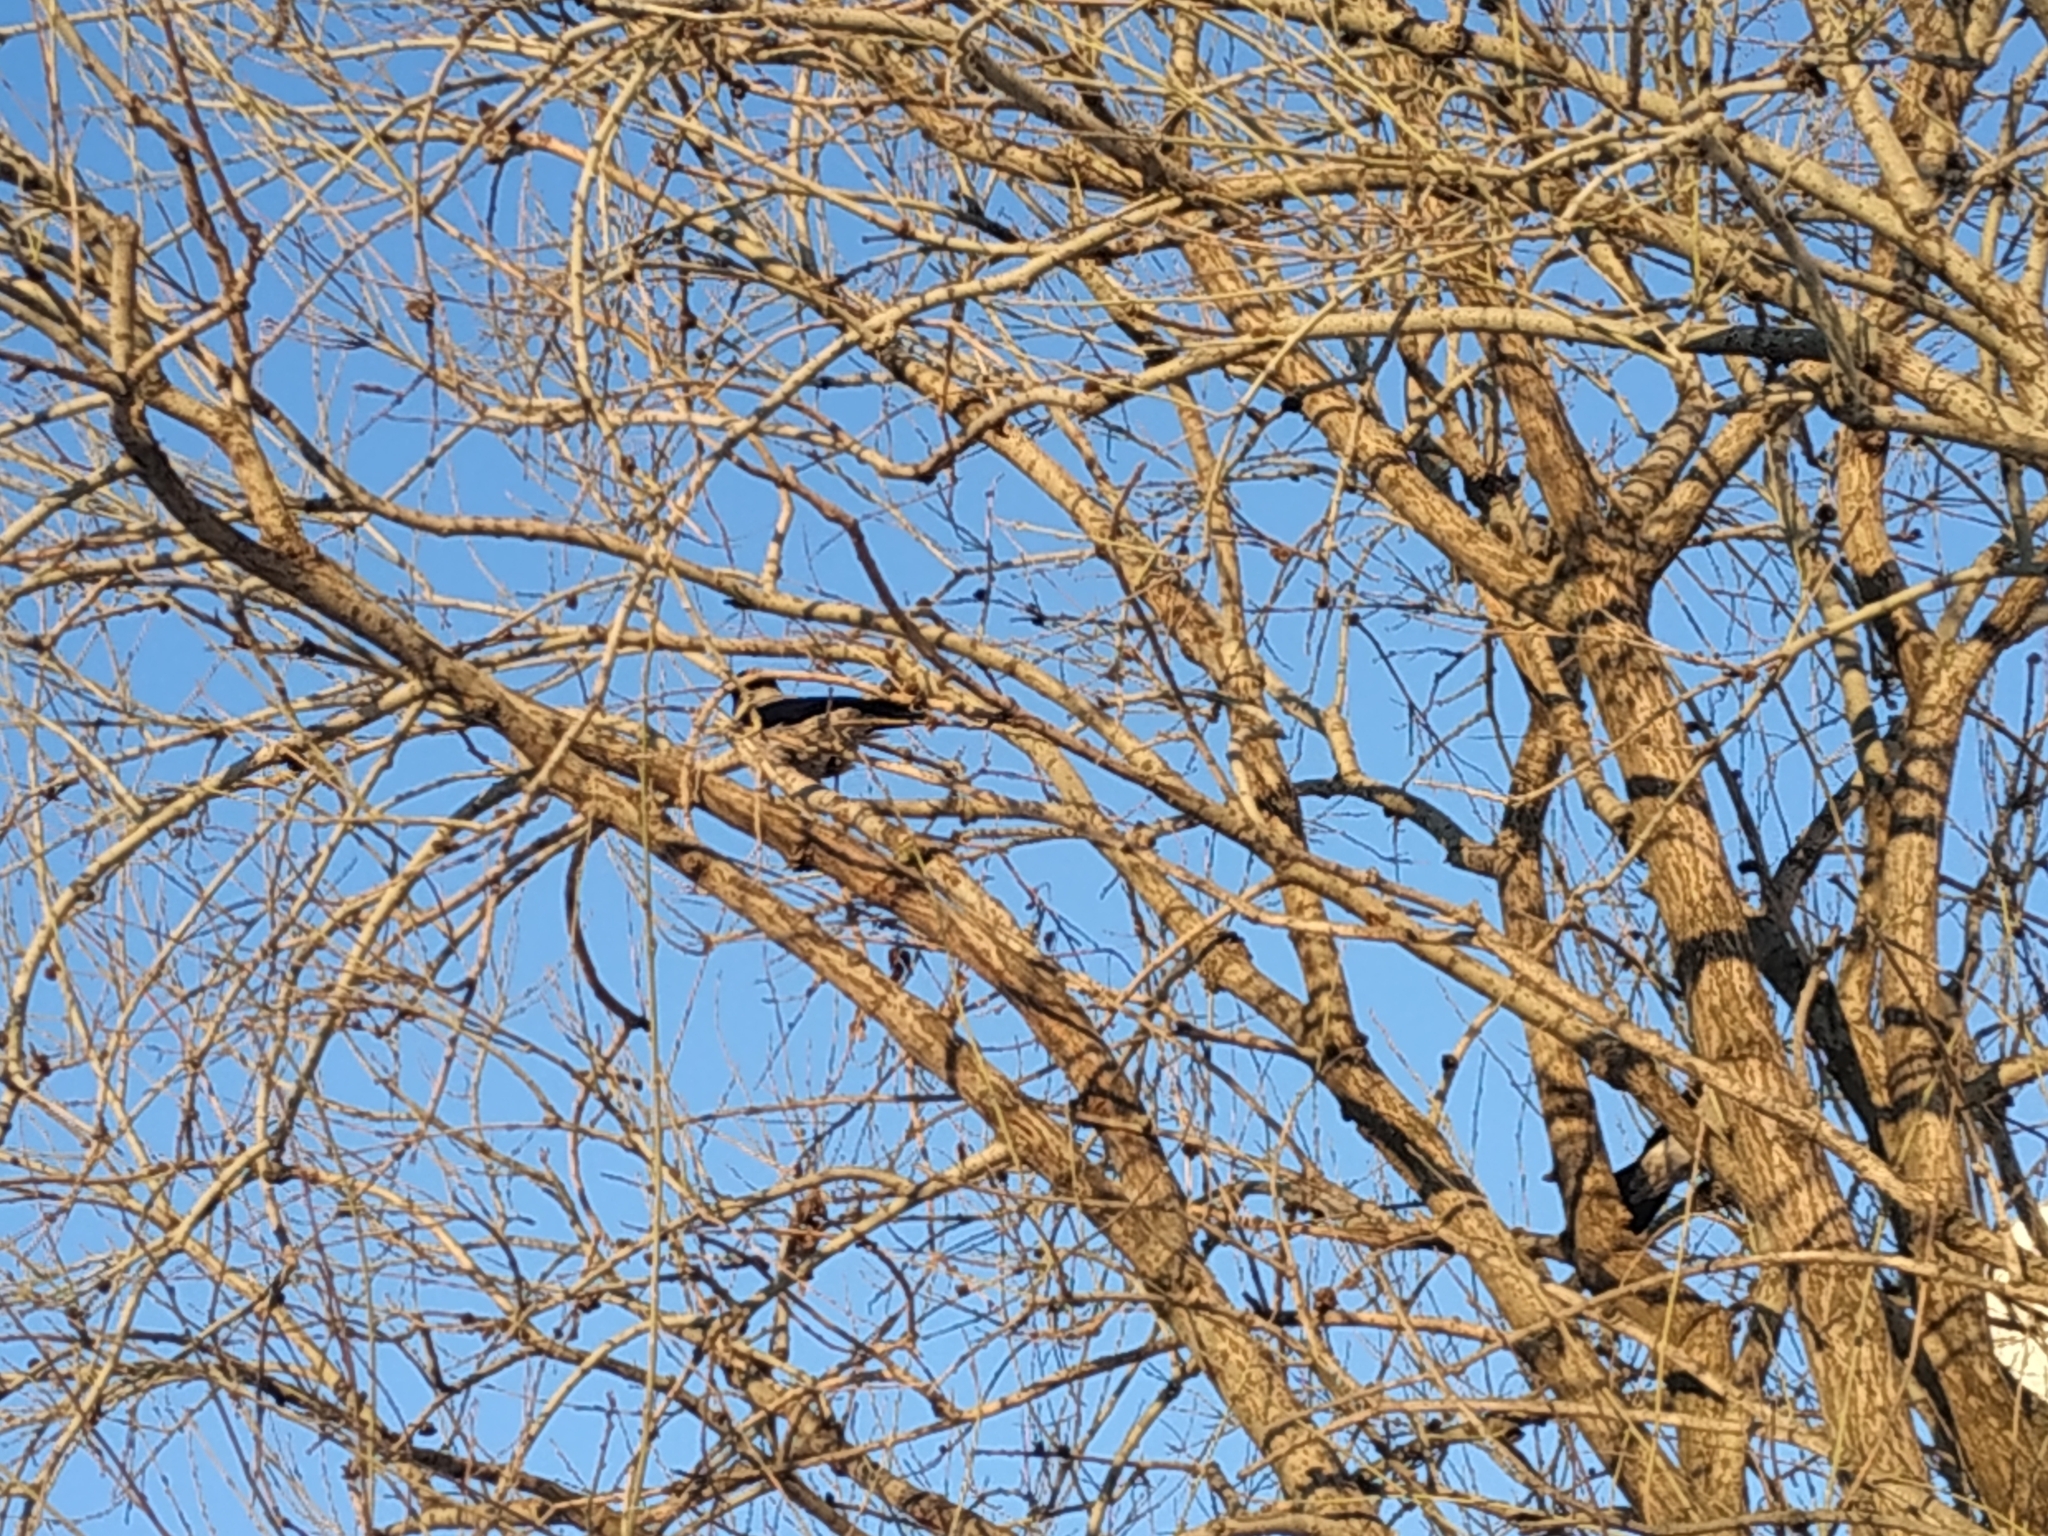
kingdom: Animalia
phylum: Chordata
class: Aves
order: Passeriformes
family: Corvidae
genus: Corvus
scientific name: Corvus cornix
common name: Hooded crow
